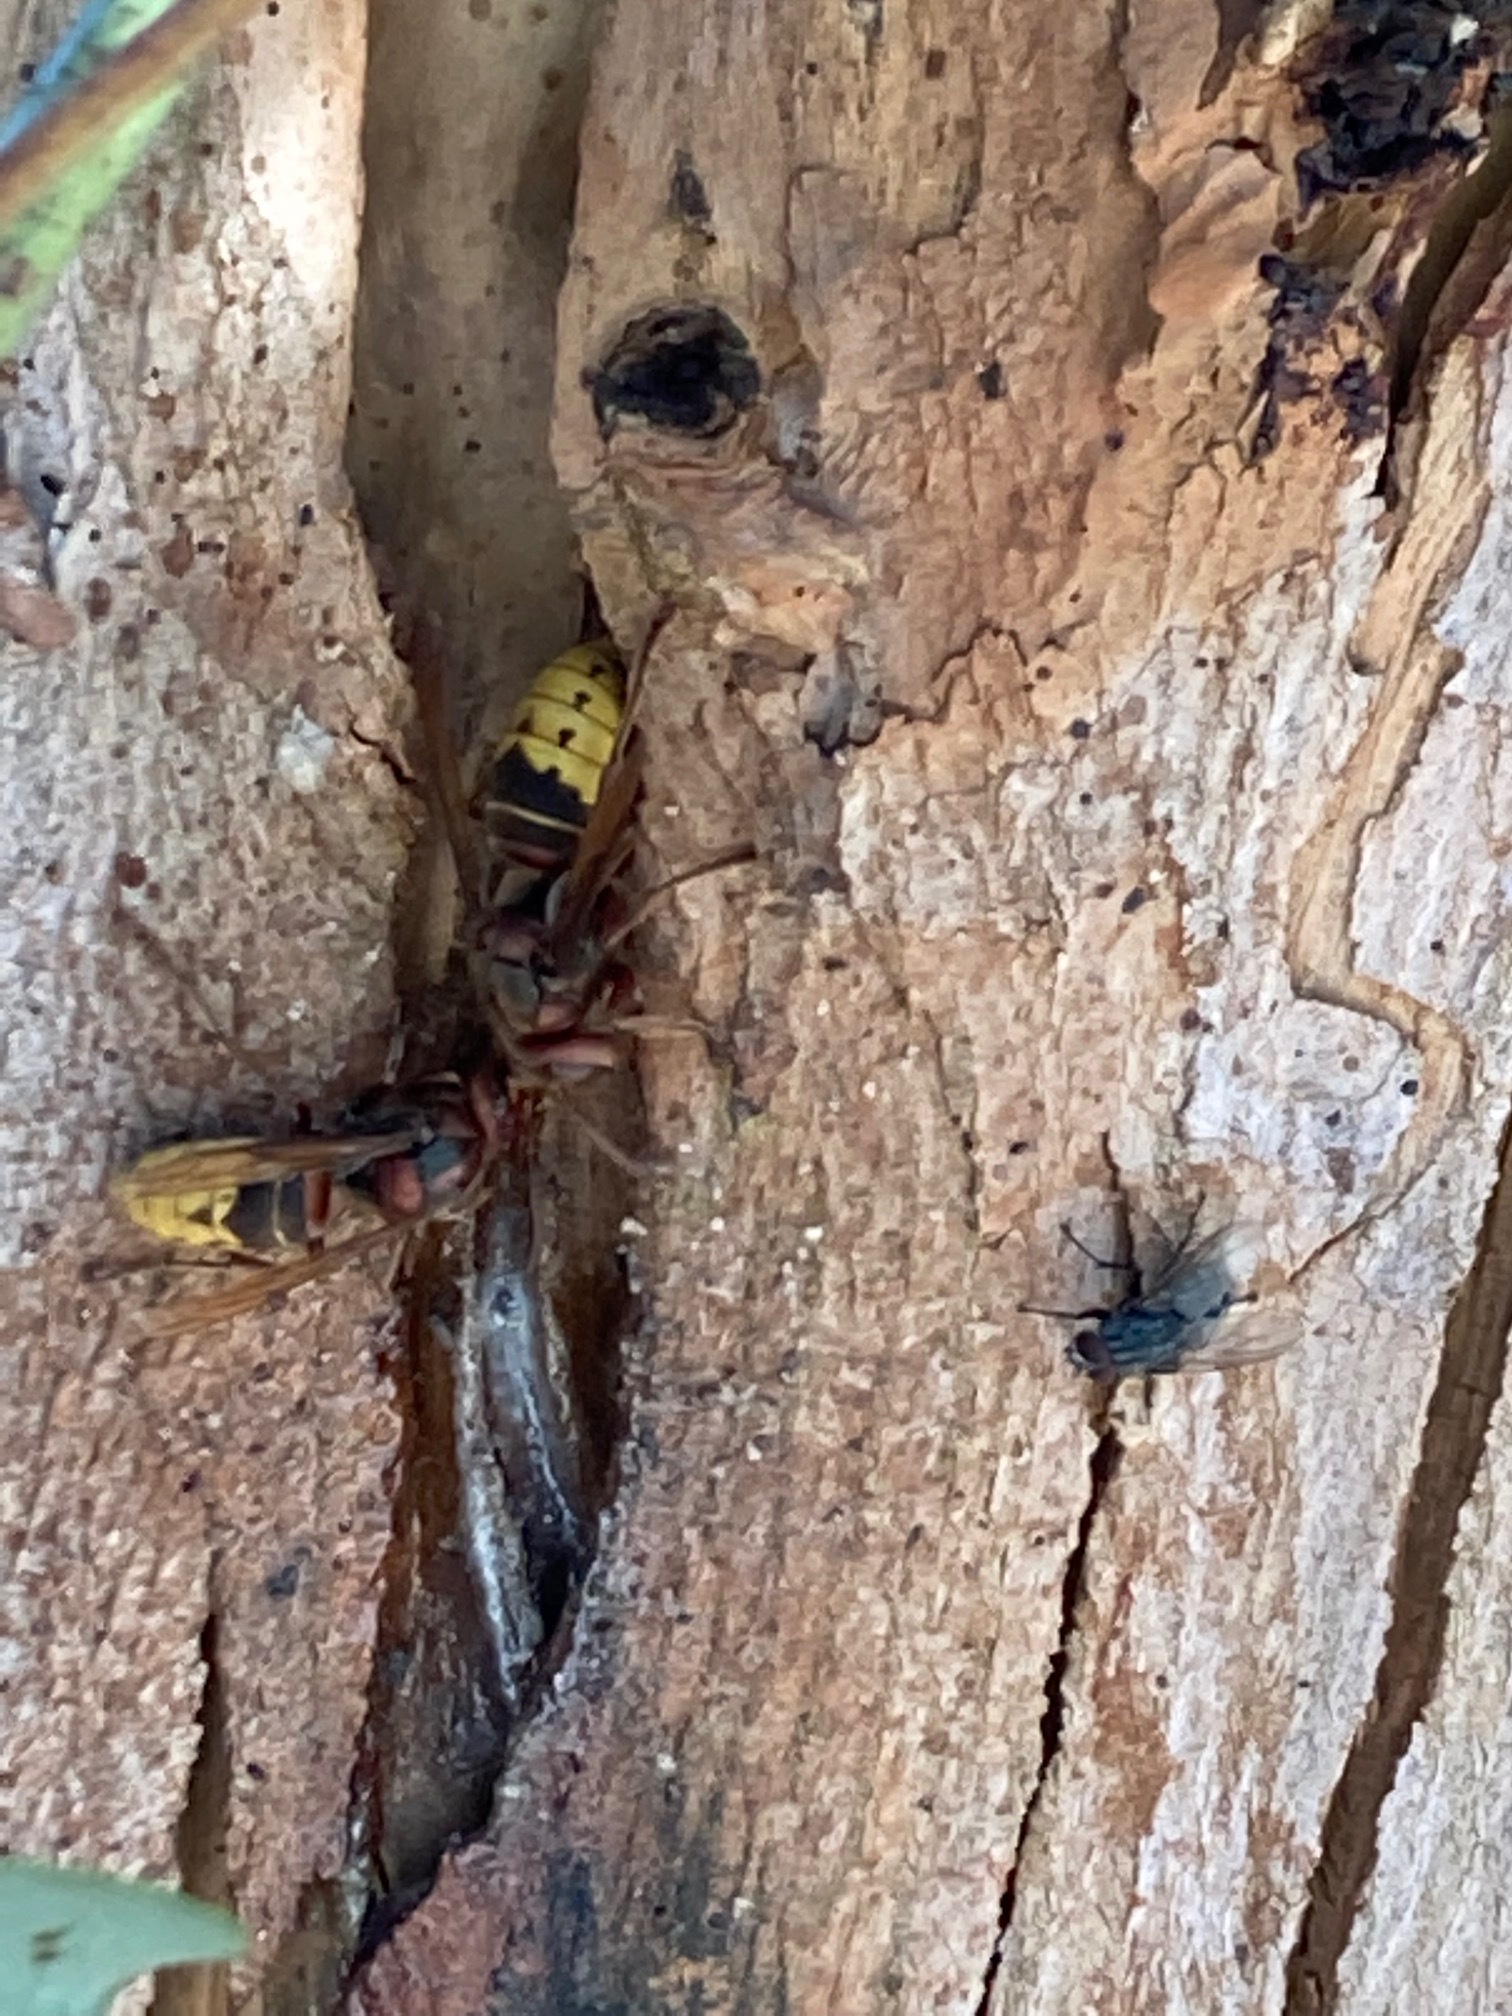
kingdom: Animalia
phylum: Arthropoda
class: Insecta
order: Hymenoptera
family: Vespidae
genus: Vespa
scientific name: Vespa crabro
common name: Hornet
